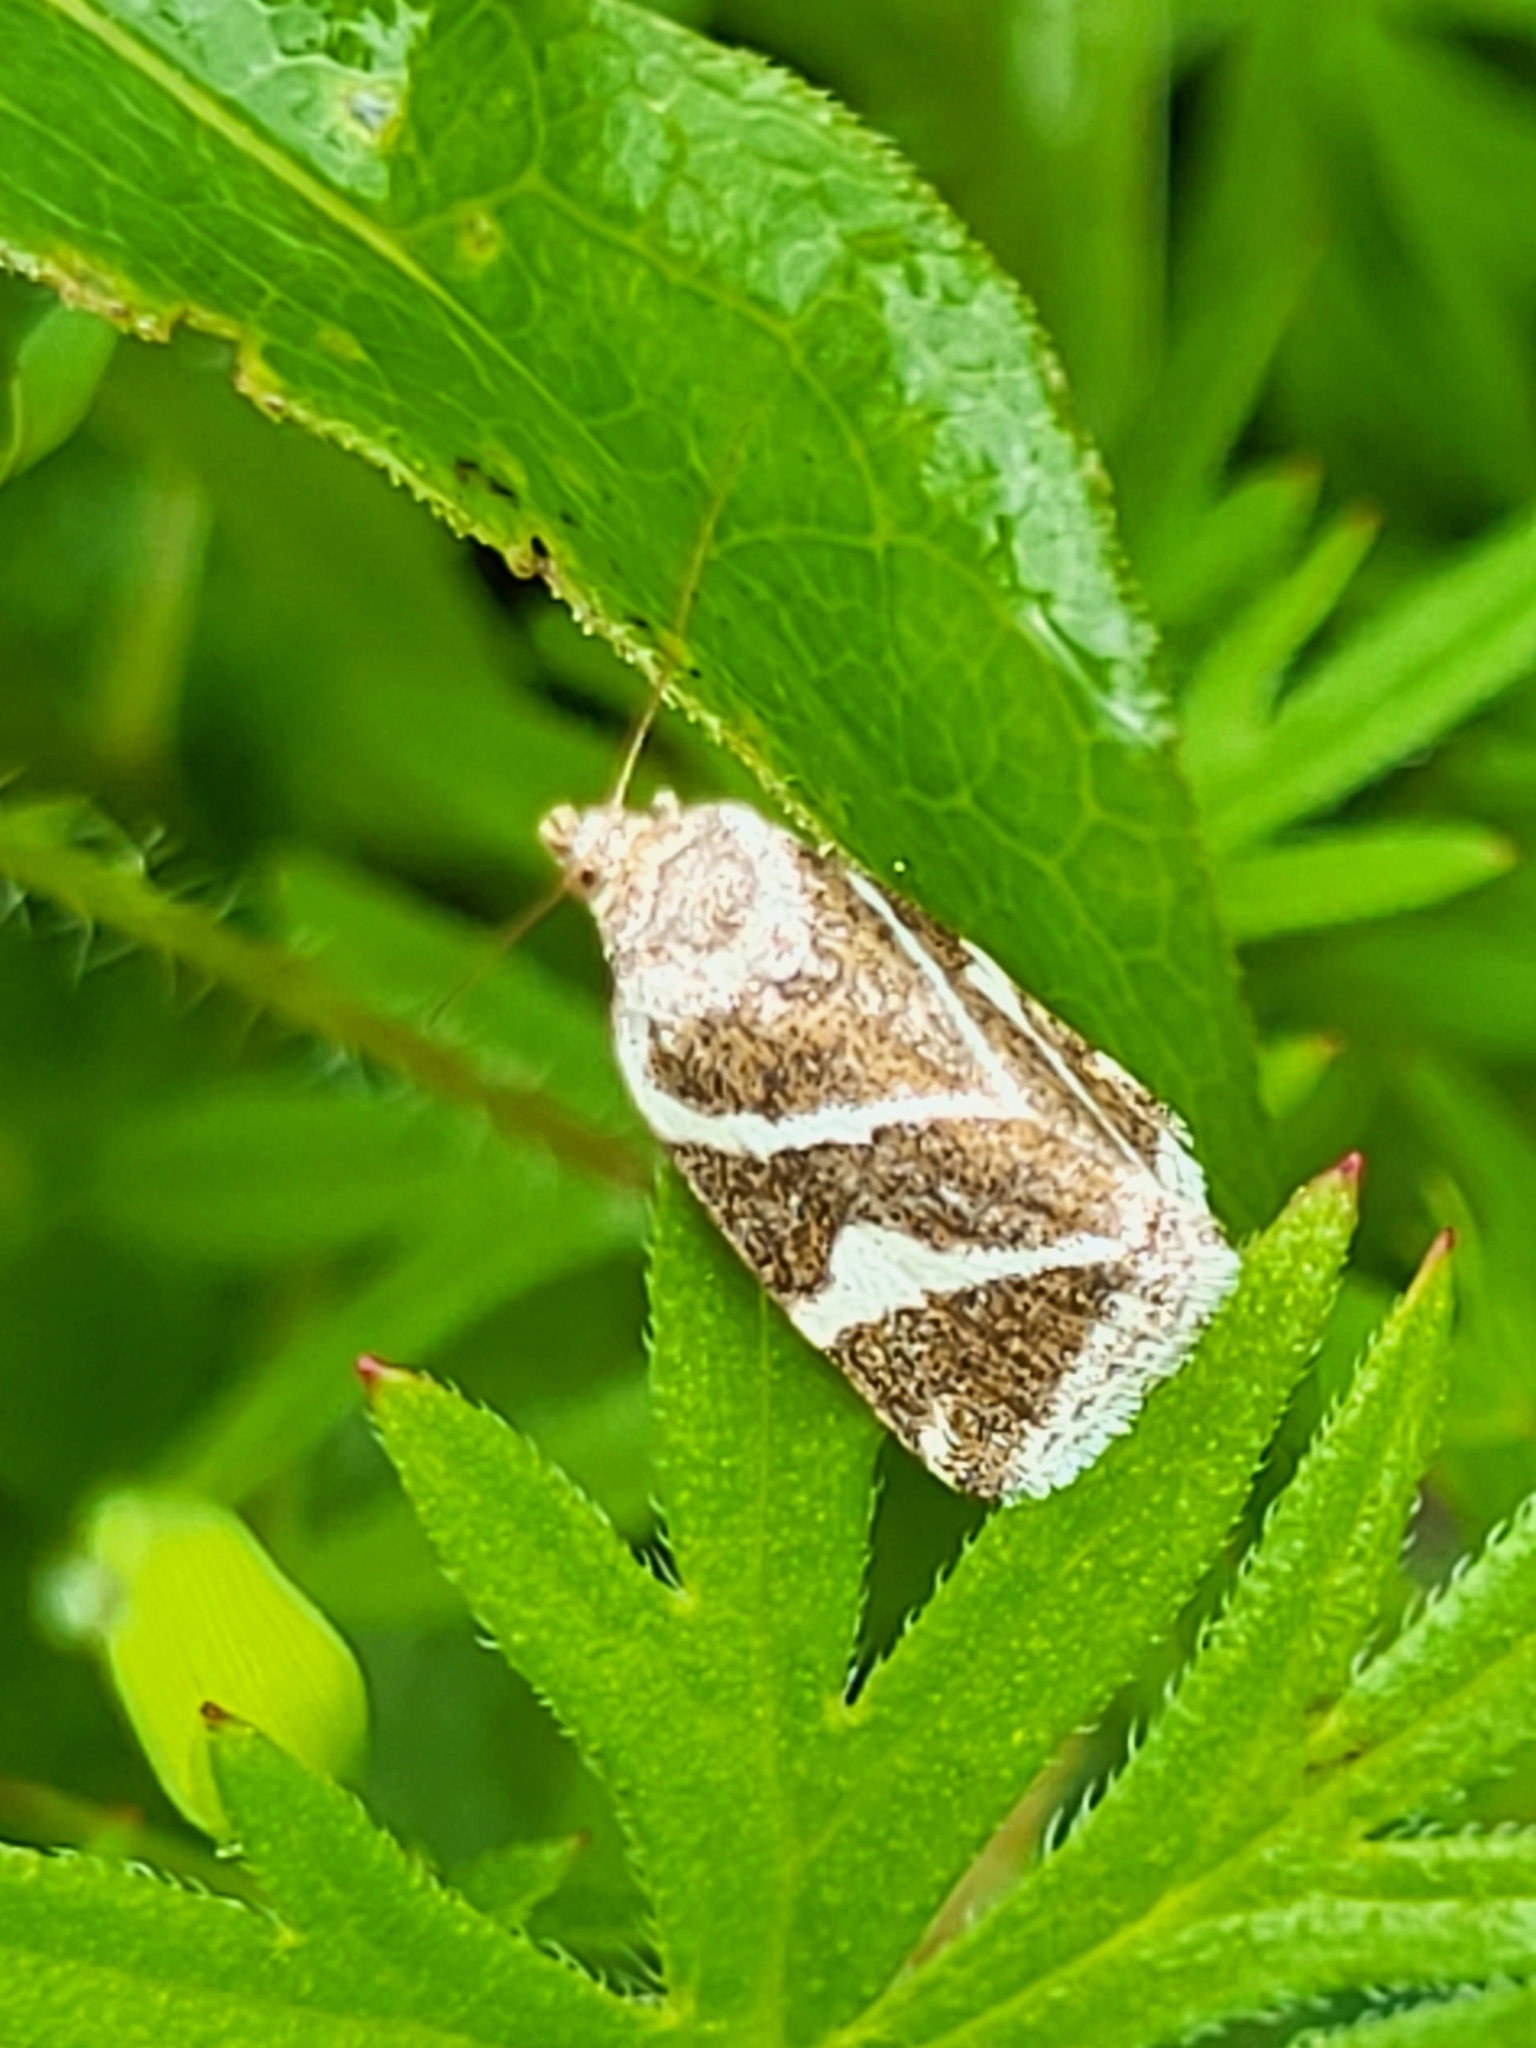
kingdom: Animalia
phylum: Arthropoda
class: Insecta
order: Lepidoptera
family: Noctuidae
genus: Deltote
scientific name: Deltote bankiana
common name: Silver barred
